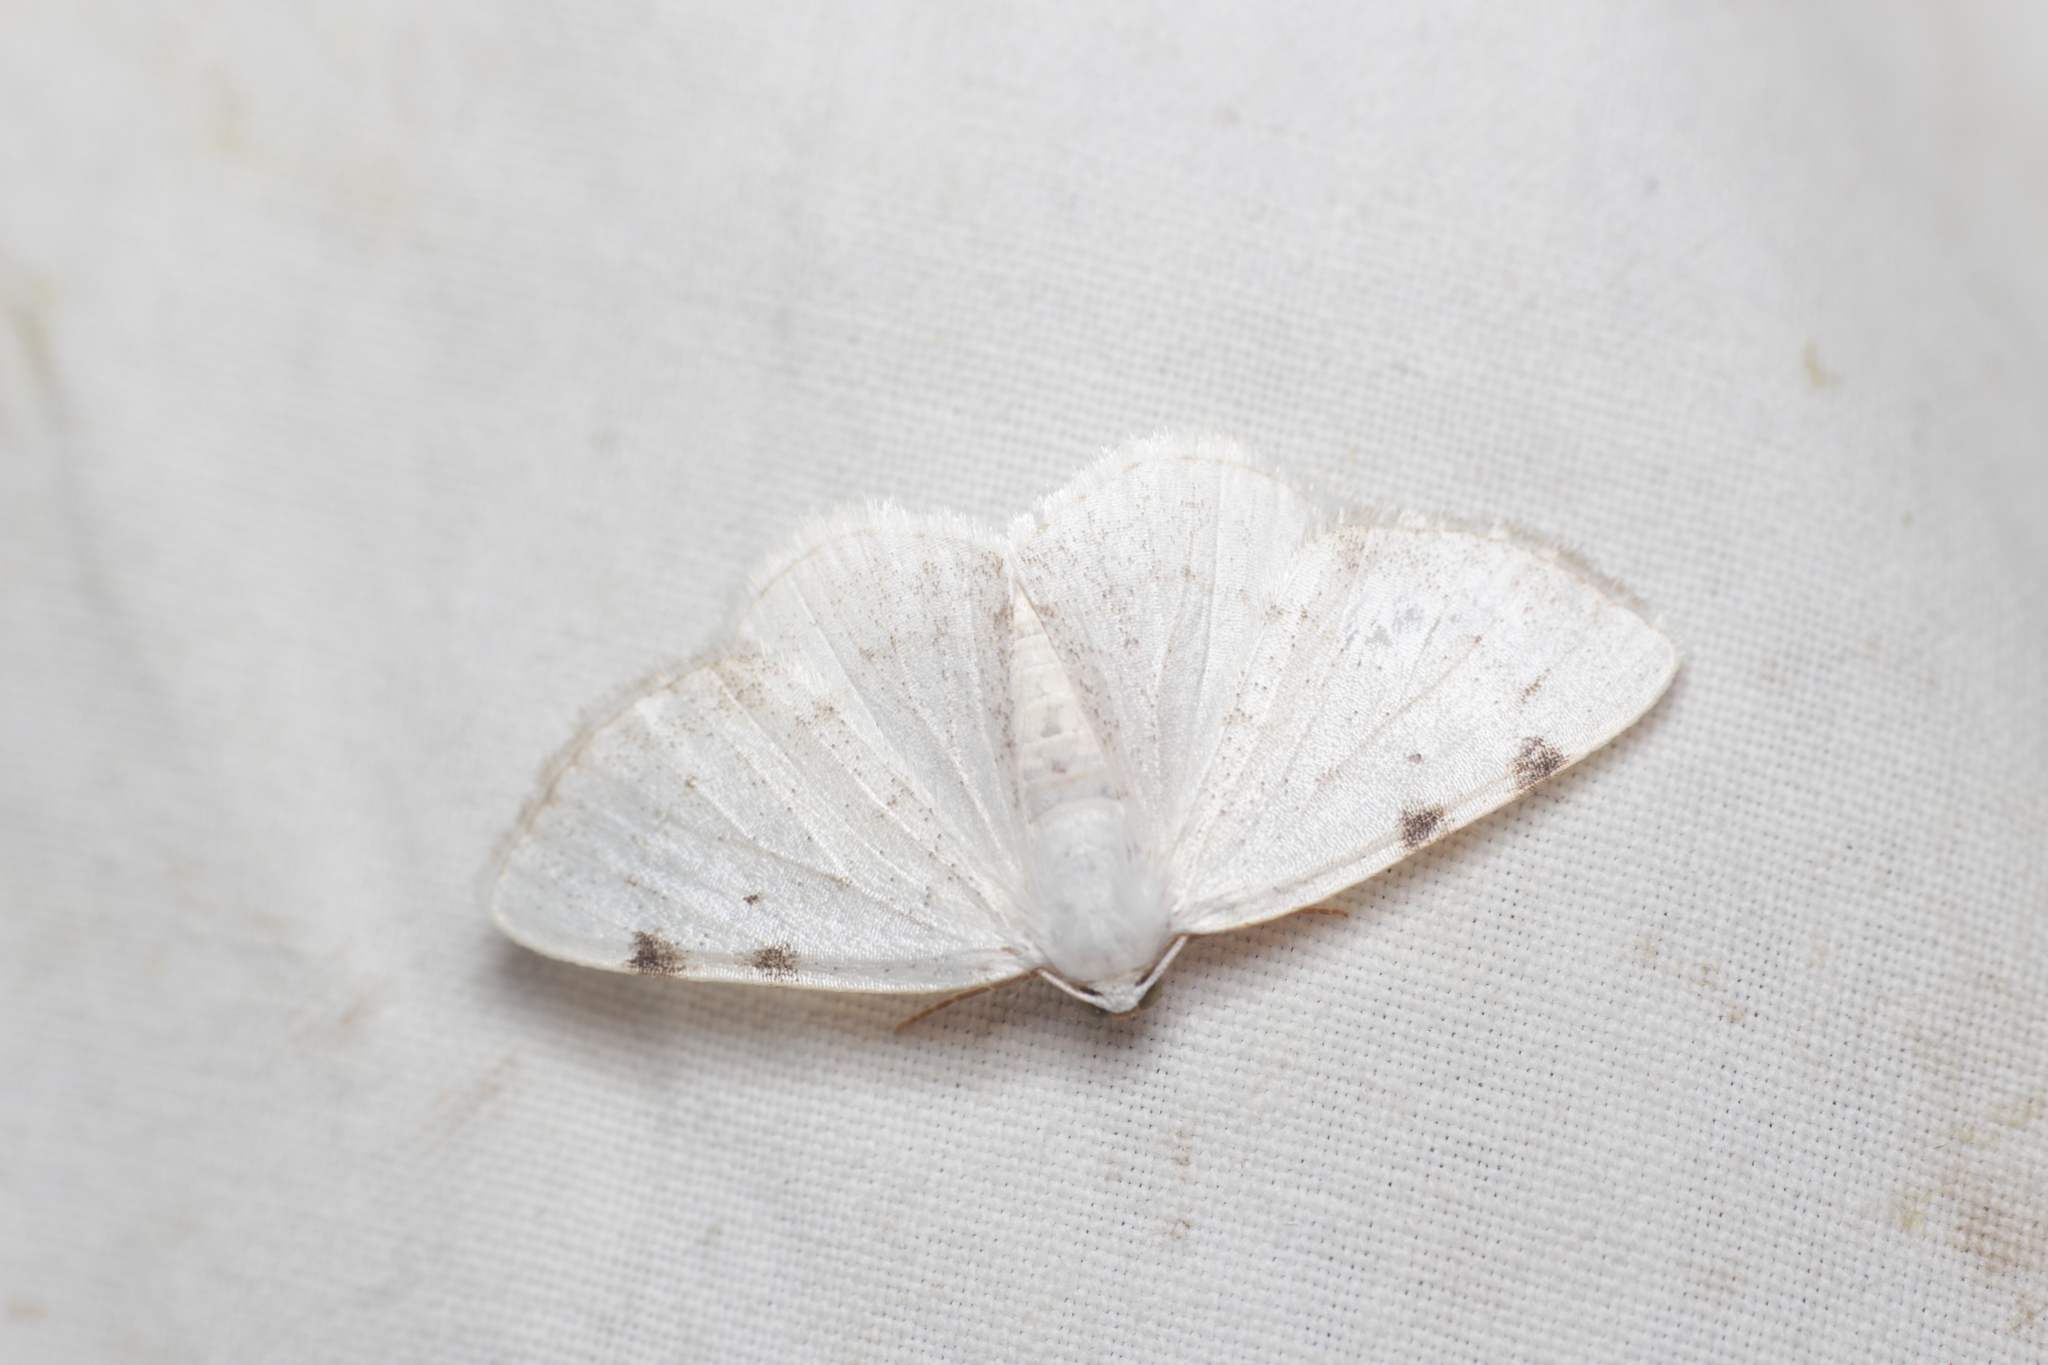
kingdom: Animalia
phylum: Arthropoda
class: Insecta
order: Lepidoptera
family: Geometridae
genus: Lomographa
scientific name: Lomographa bimaculata
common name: White-pinion spotted
